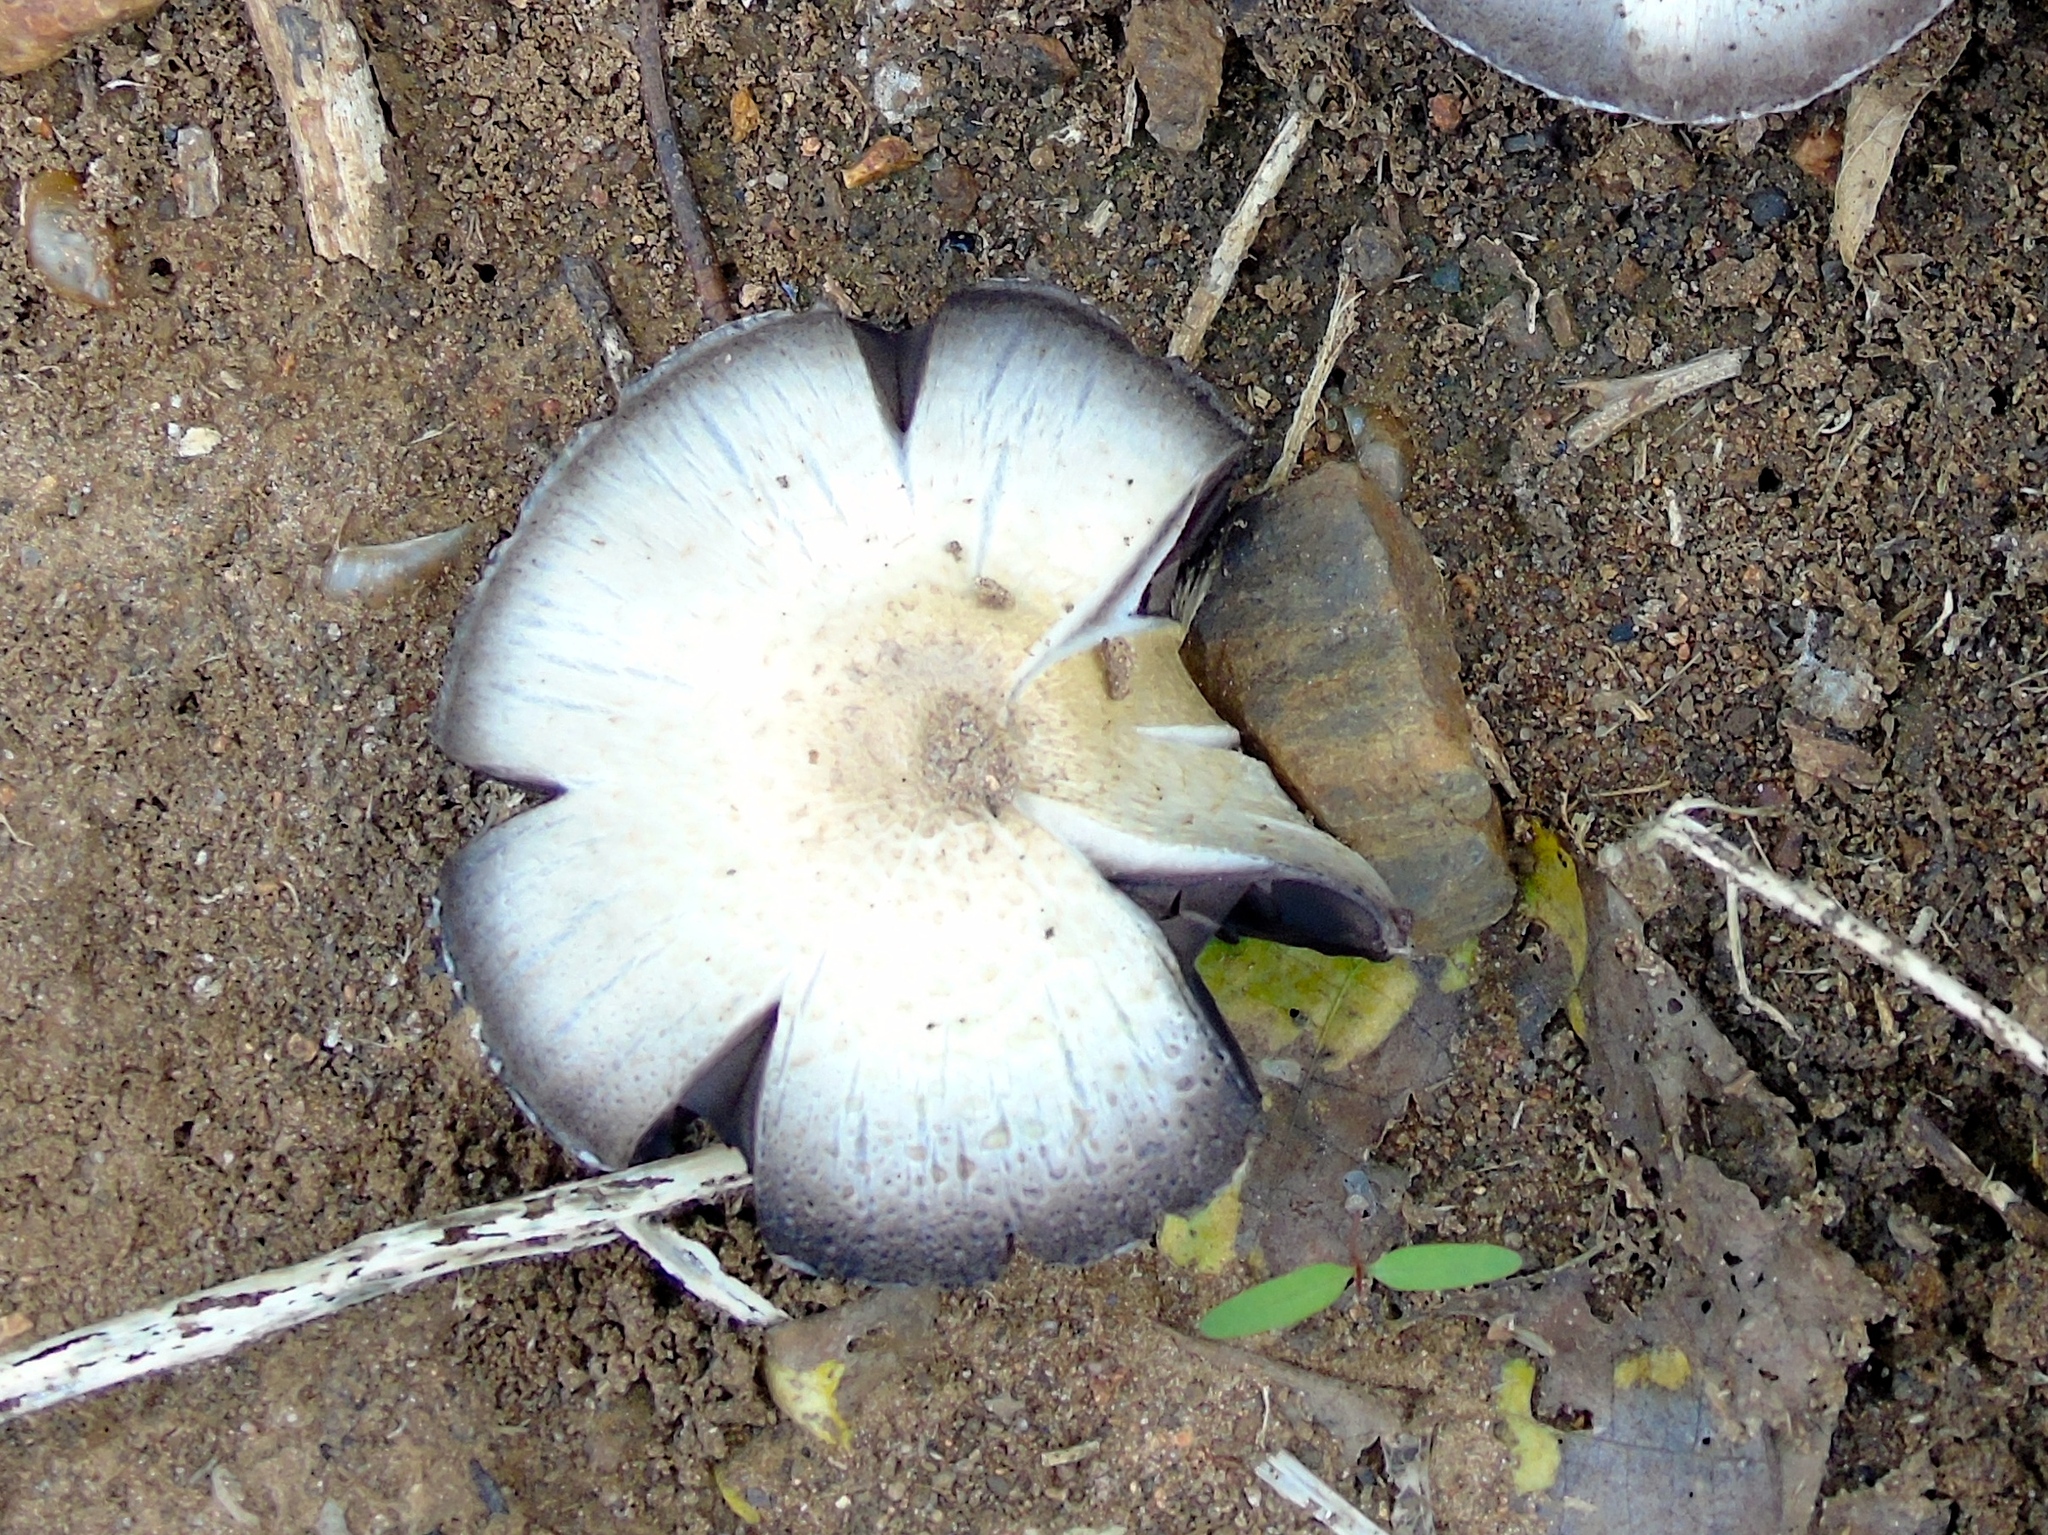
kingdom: Fungi
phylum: Basidiomycota
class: Agaricomycetes
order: Agaricales
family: Agaricaceae
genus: Agaricus
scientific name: Agaricus
